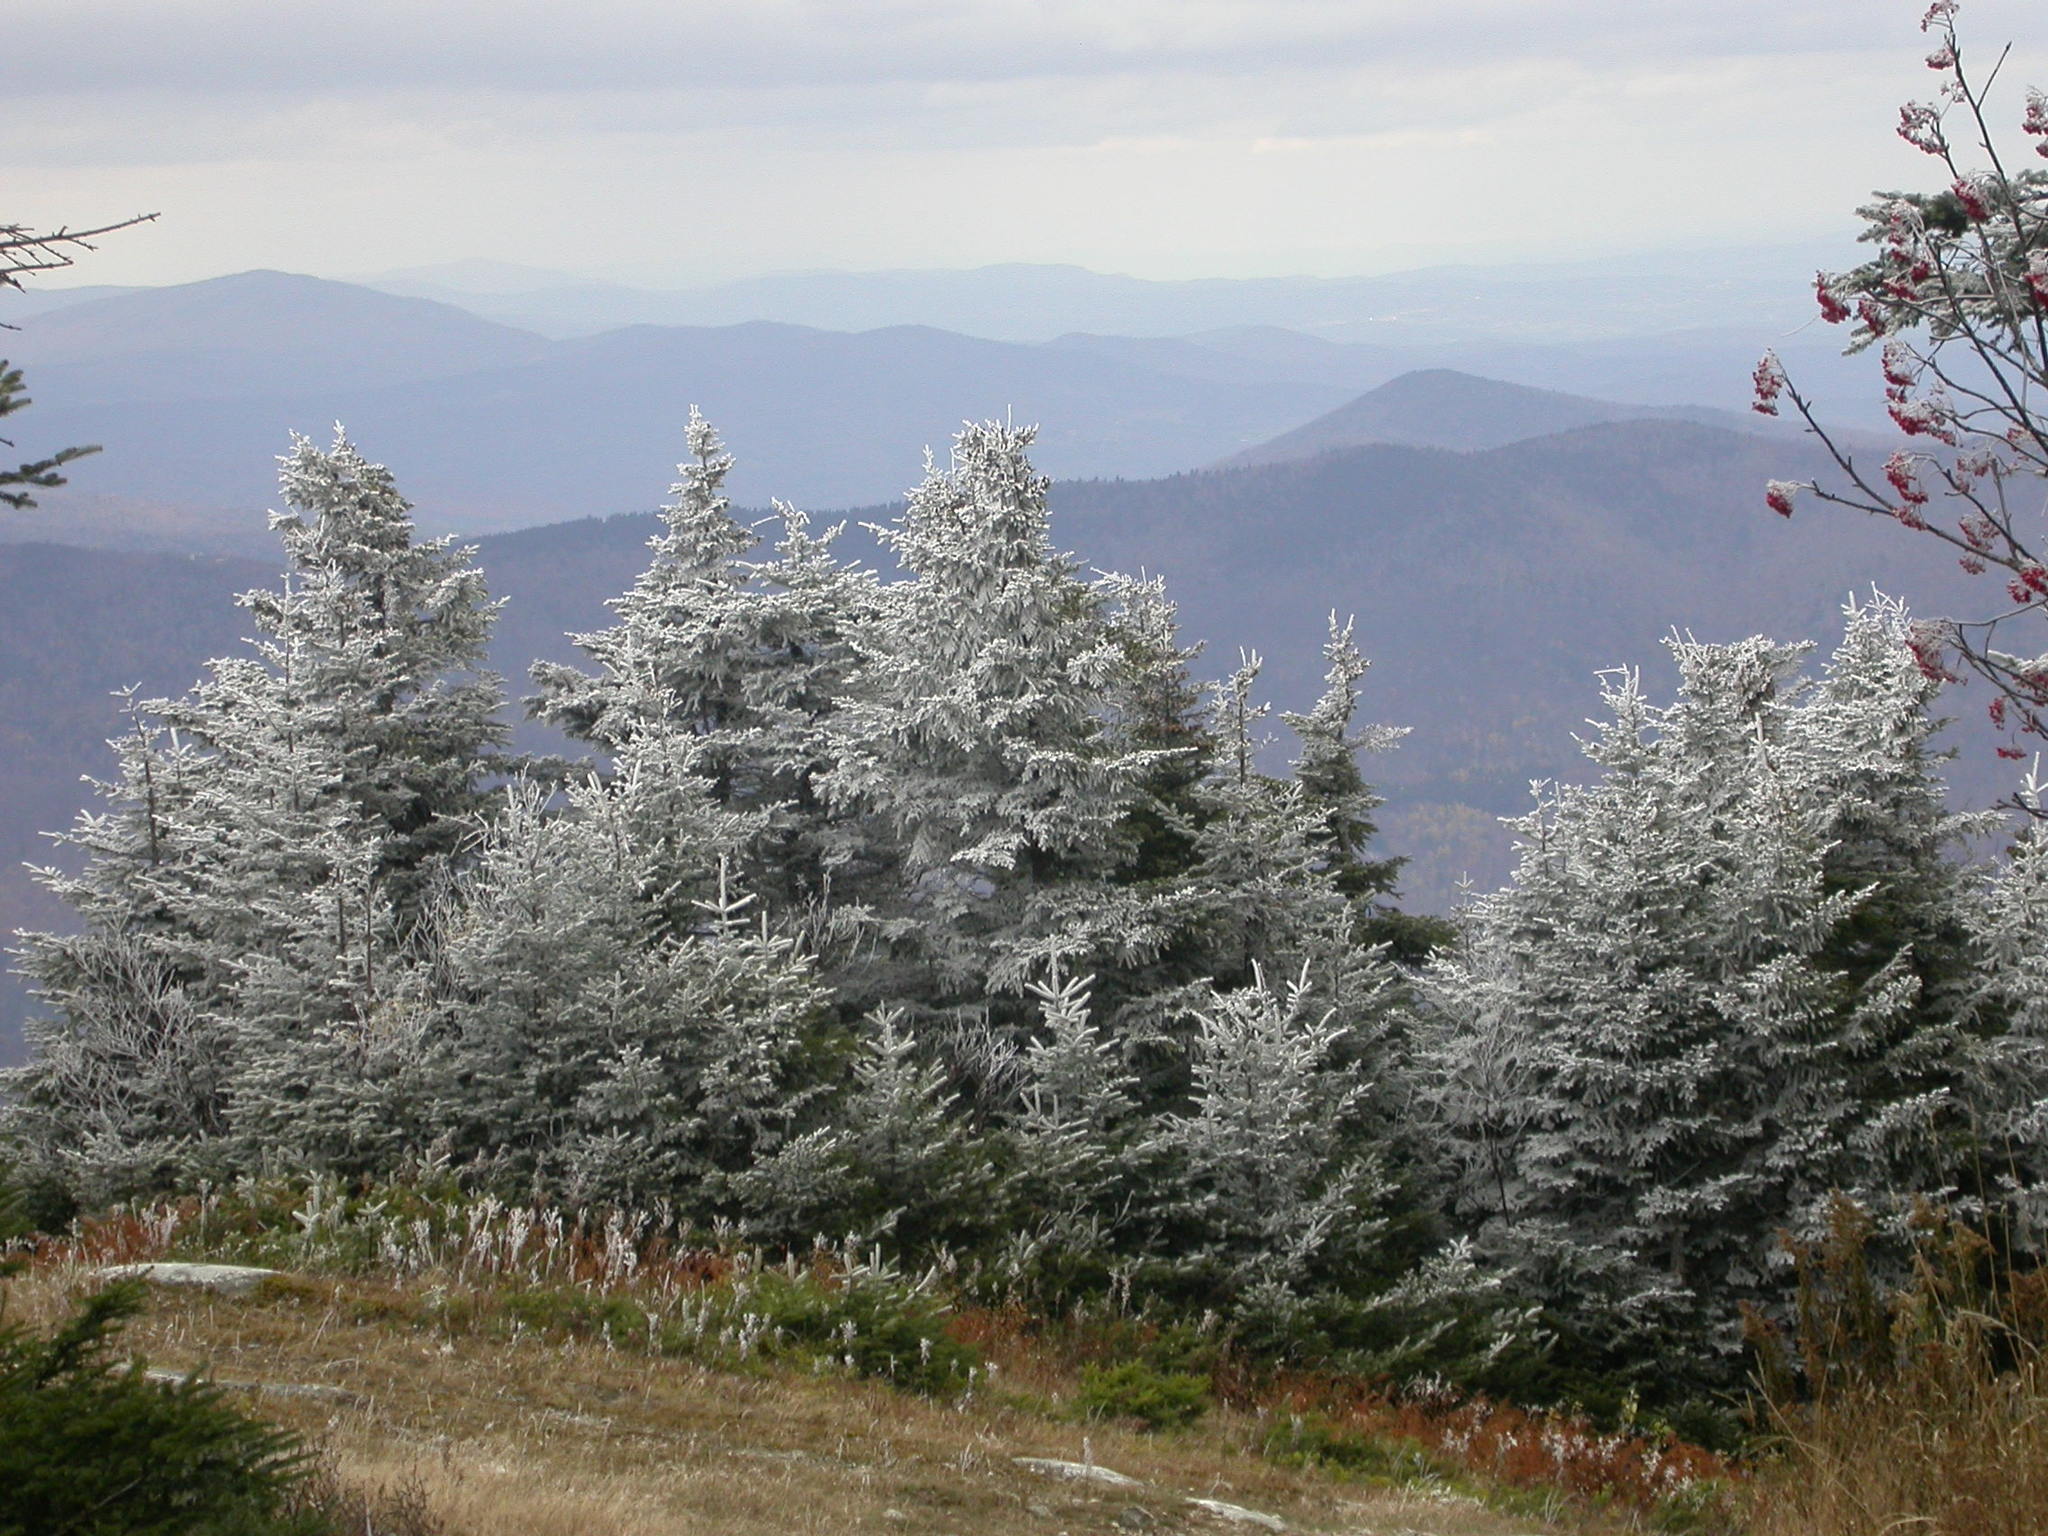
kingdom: Plantae
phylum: Tracheophyta
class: Pinopsida
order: Pinales
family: Pinaceae
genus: Abies
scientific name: Abies balsamea
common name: Balsam fir
